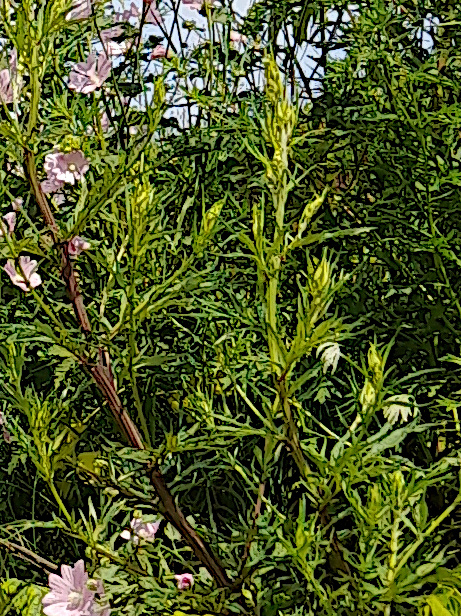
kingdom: Plantae
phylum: Tracheophyta
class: Magnoliopsida
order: Asterales
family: Asteraceae
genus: Artemisia
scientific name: Artemisia vulgaris
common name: Mugwort
